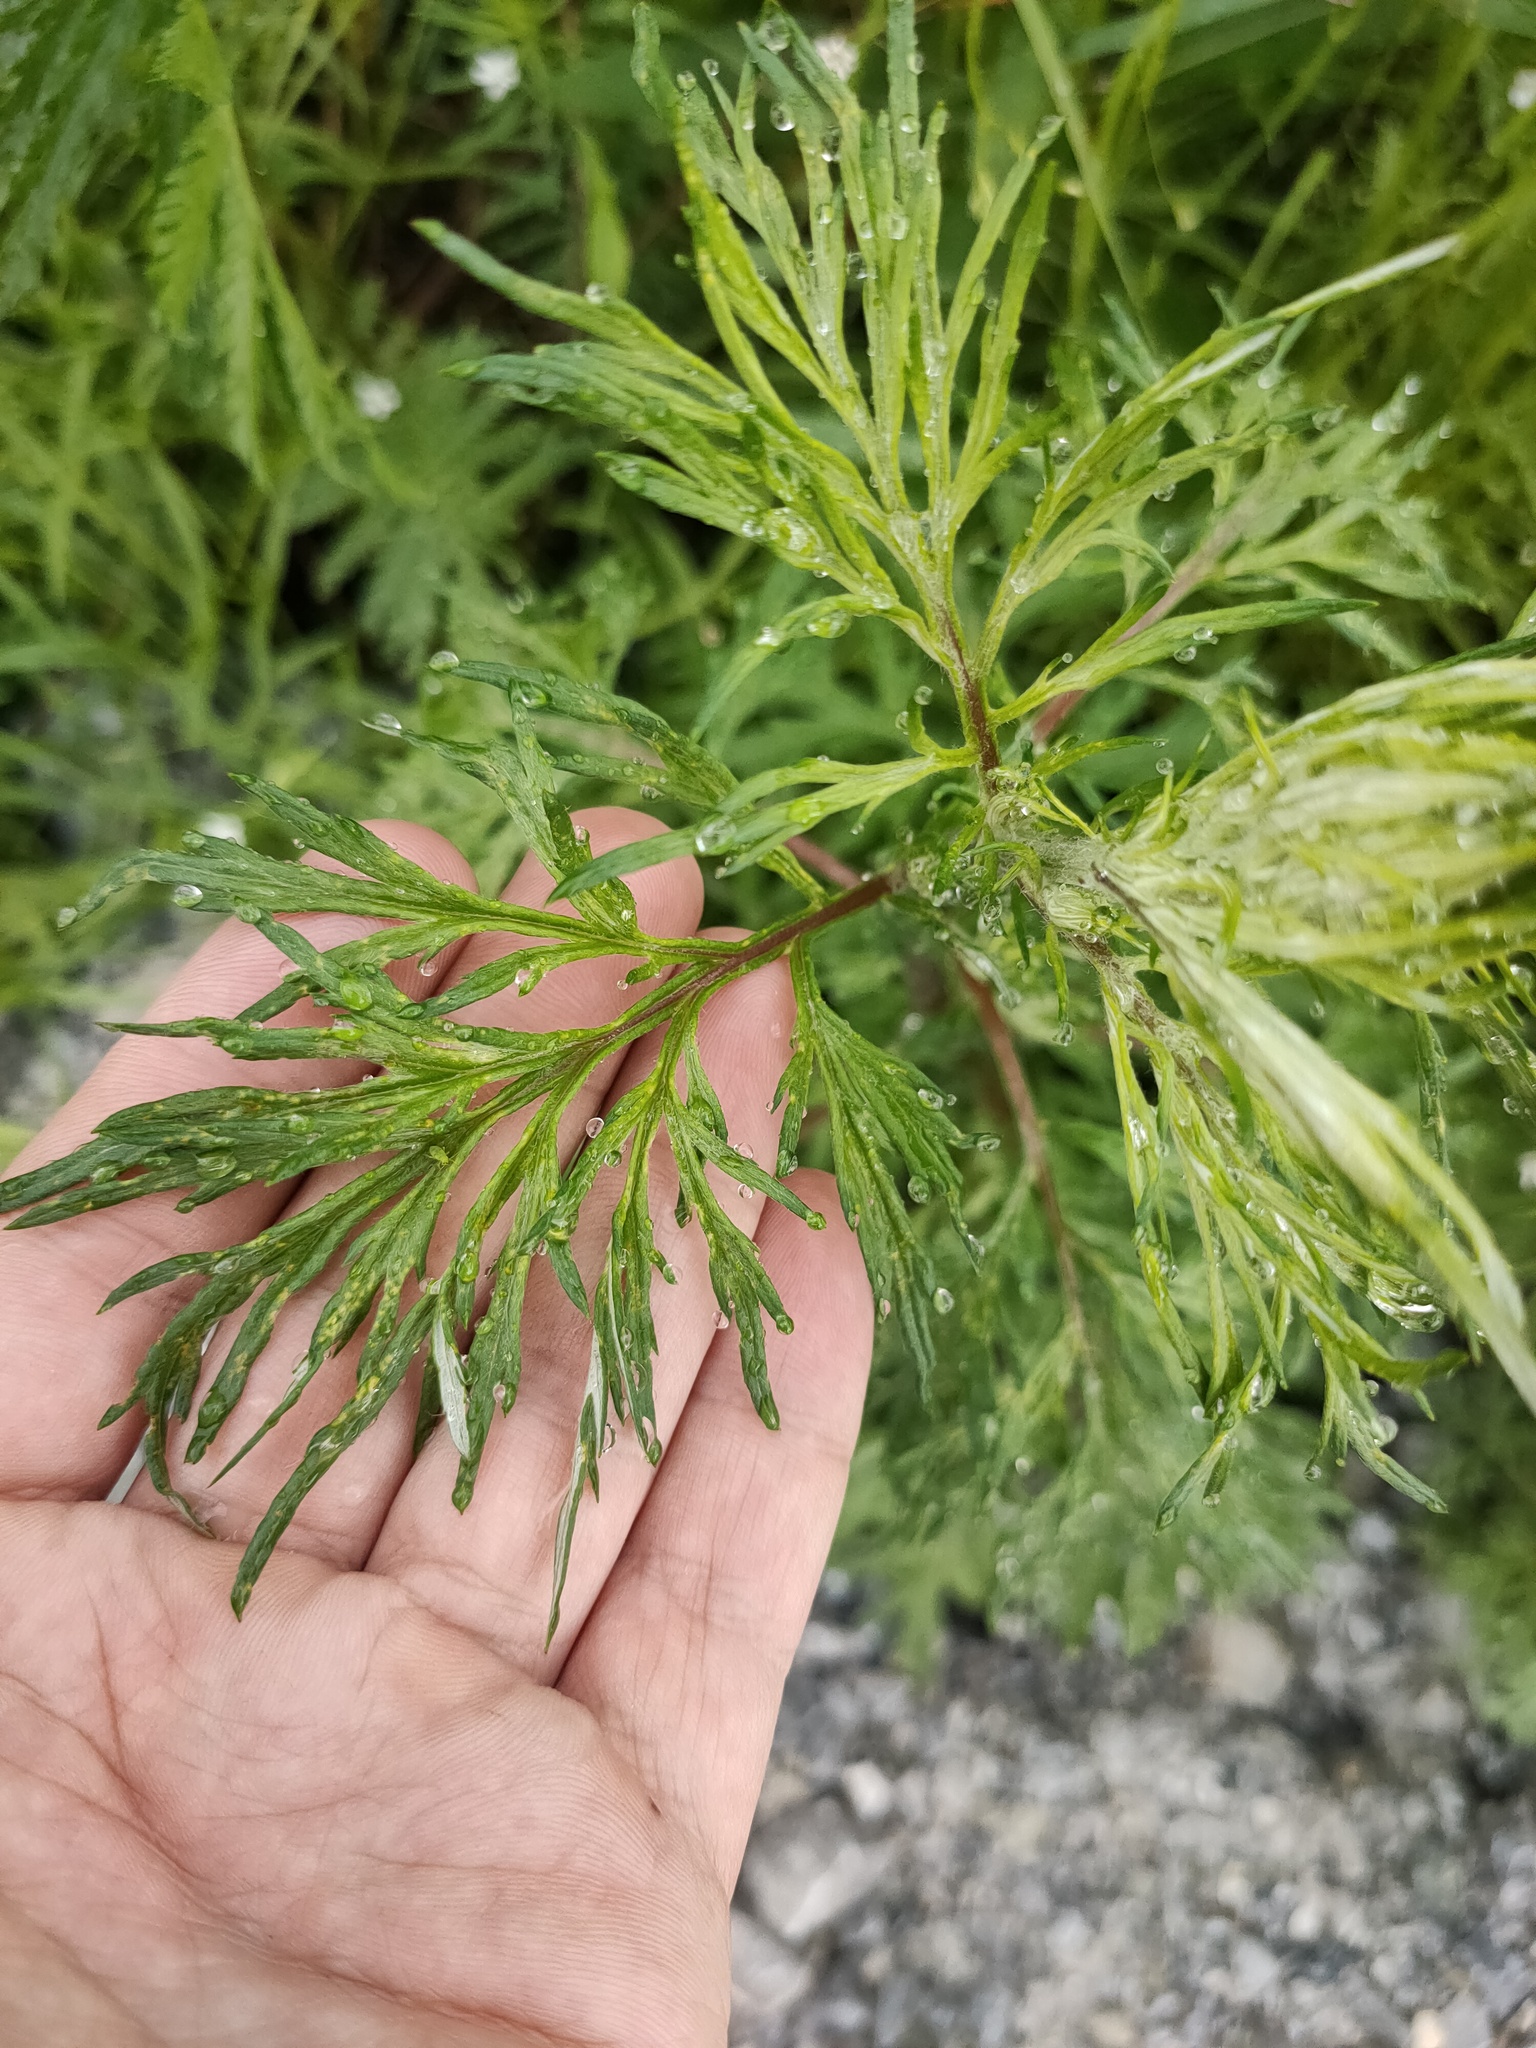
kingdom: Plantae
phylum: Tracheophyta
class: Magnoliopsida
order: Asterales
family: Asteraceae
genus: Artemisia
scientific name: Artemisia vulgaris
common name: Mugwort
